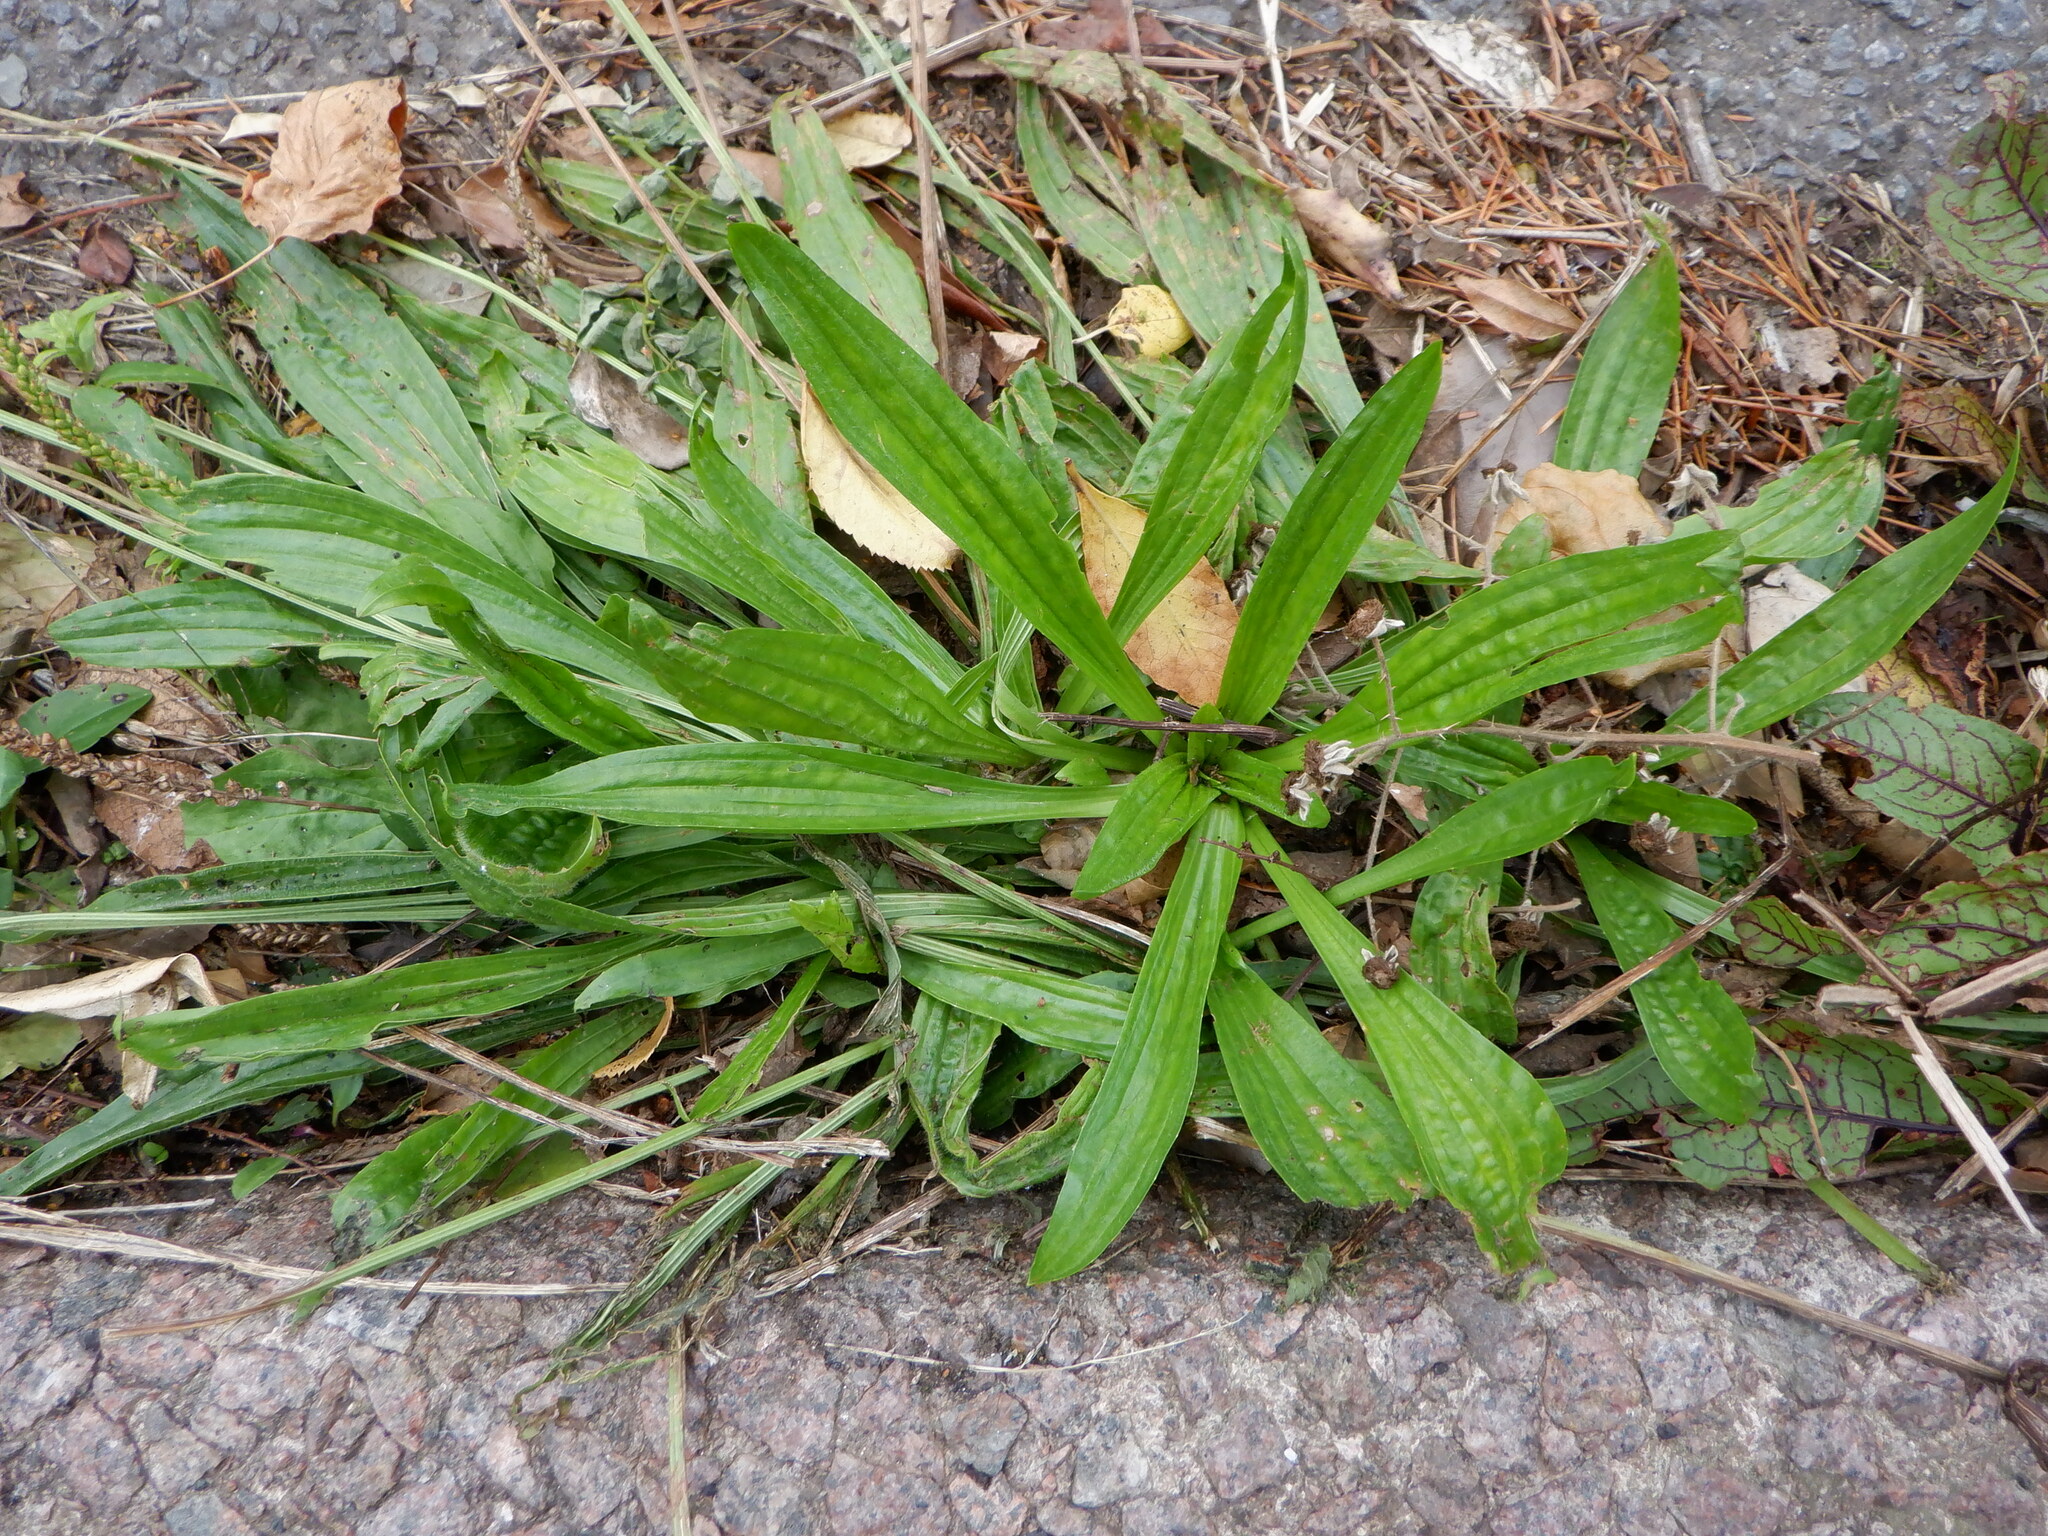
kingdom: Plantae
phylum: Tracheophyta
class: Magnoliopsida
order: Lamiales
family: Plantaginaceae
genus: Plantago
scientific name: Plantago lanceolata
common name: Ribwort plantain
